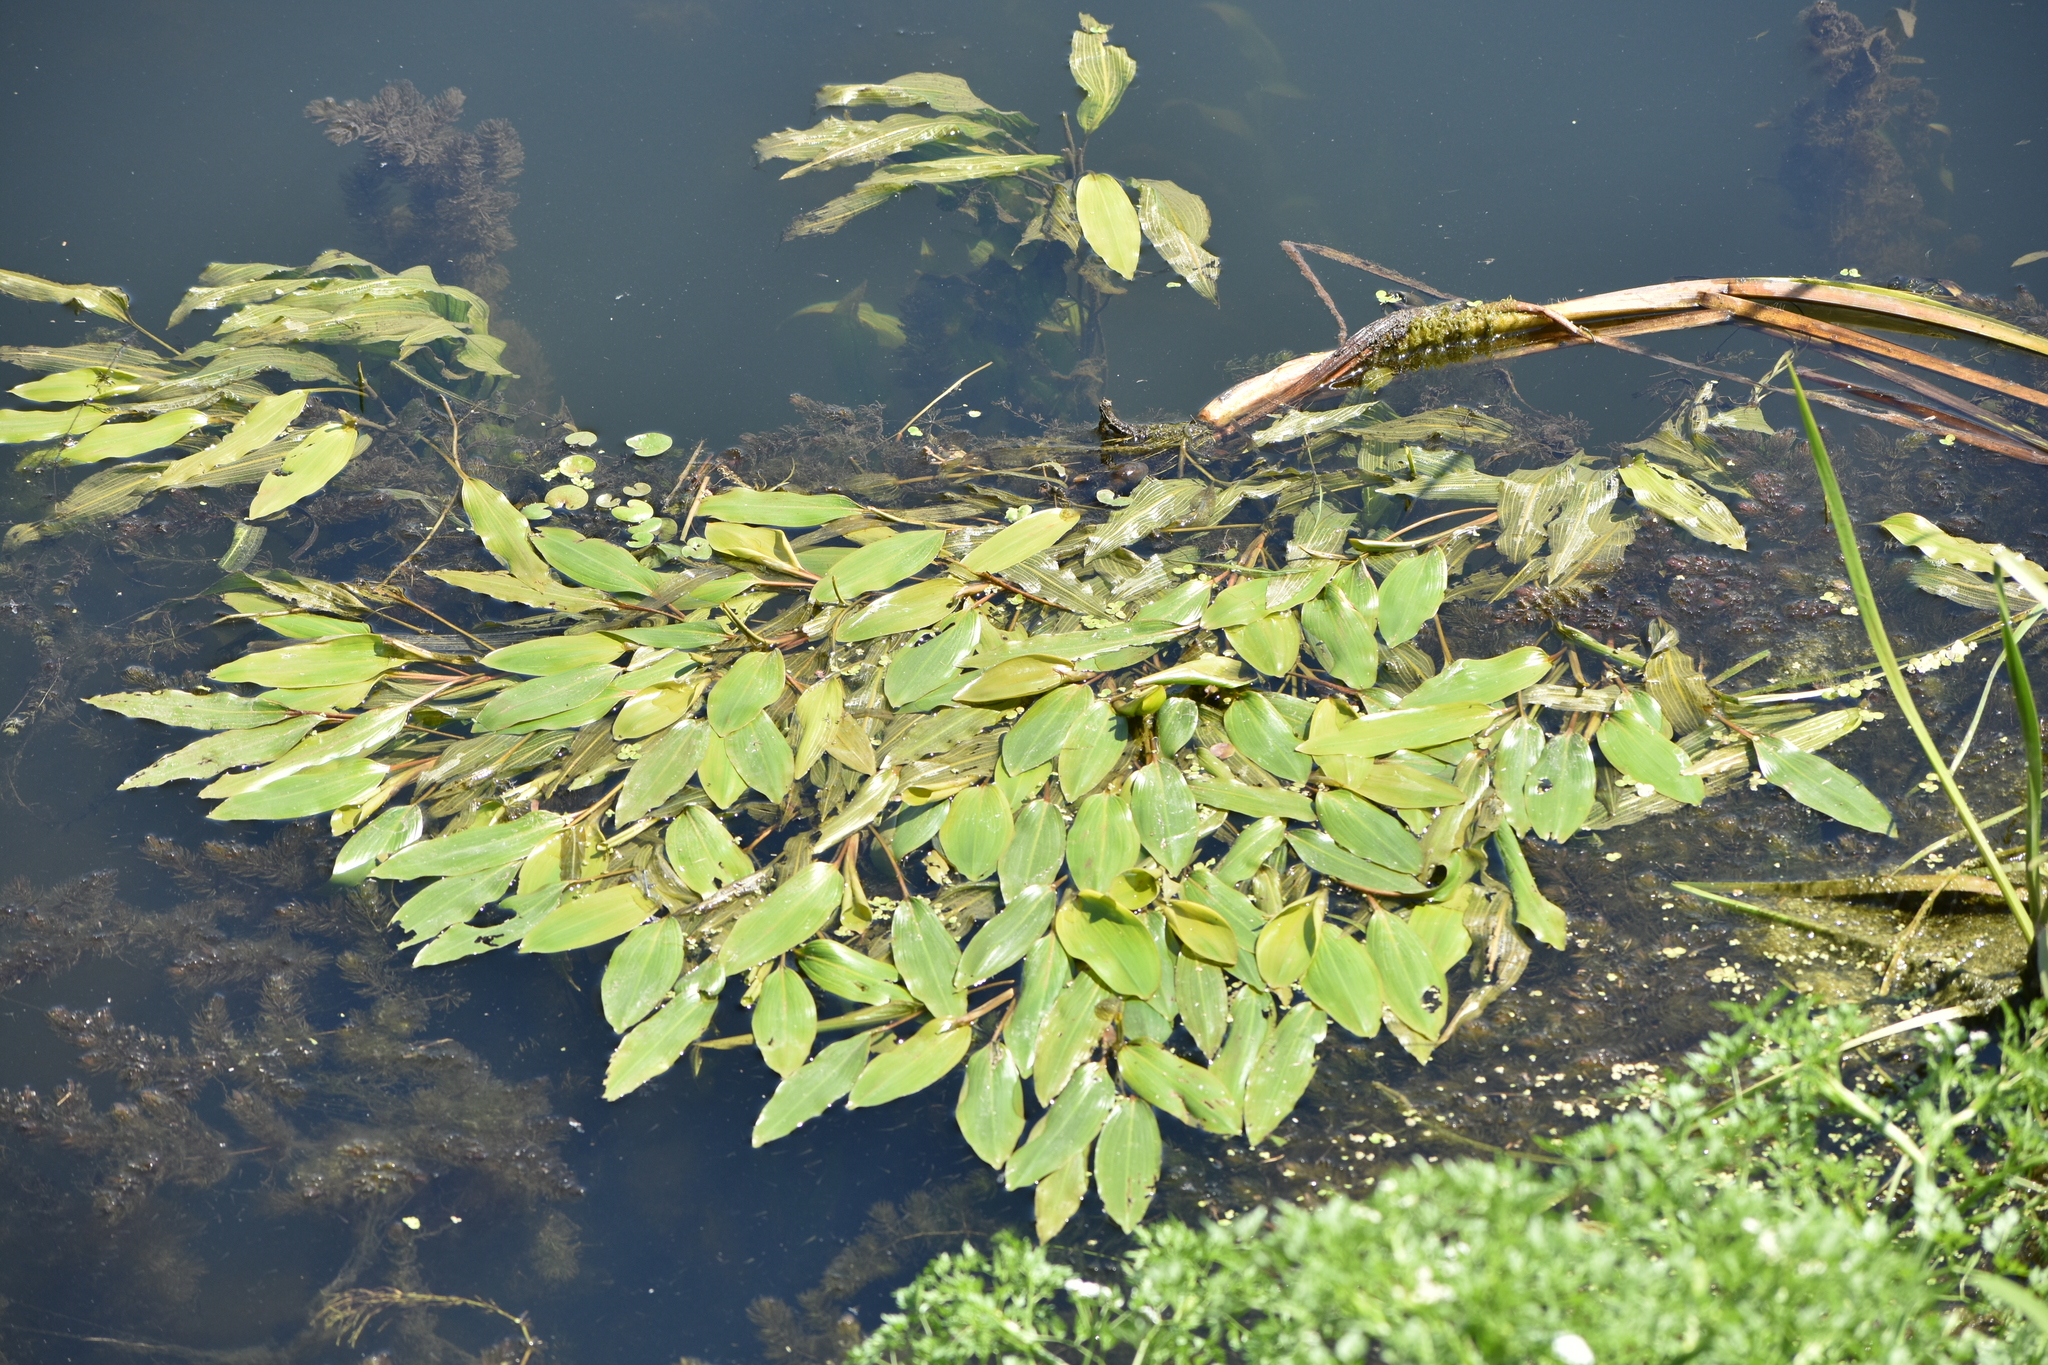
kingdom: Plantae
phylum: Tracheophyta
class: Liliopsida
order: Alismatales
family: Potamogetonaceae
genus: Potamogeton
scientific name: Potamogeton nodosus
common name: Loddon pondweed
